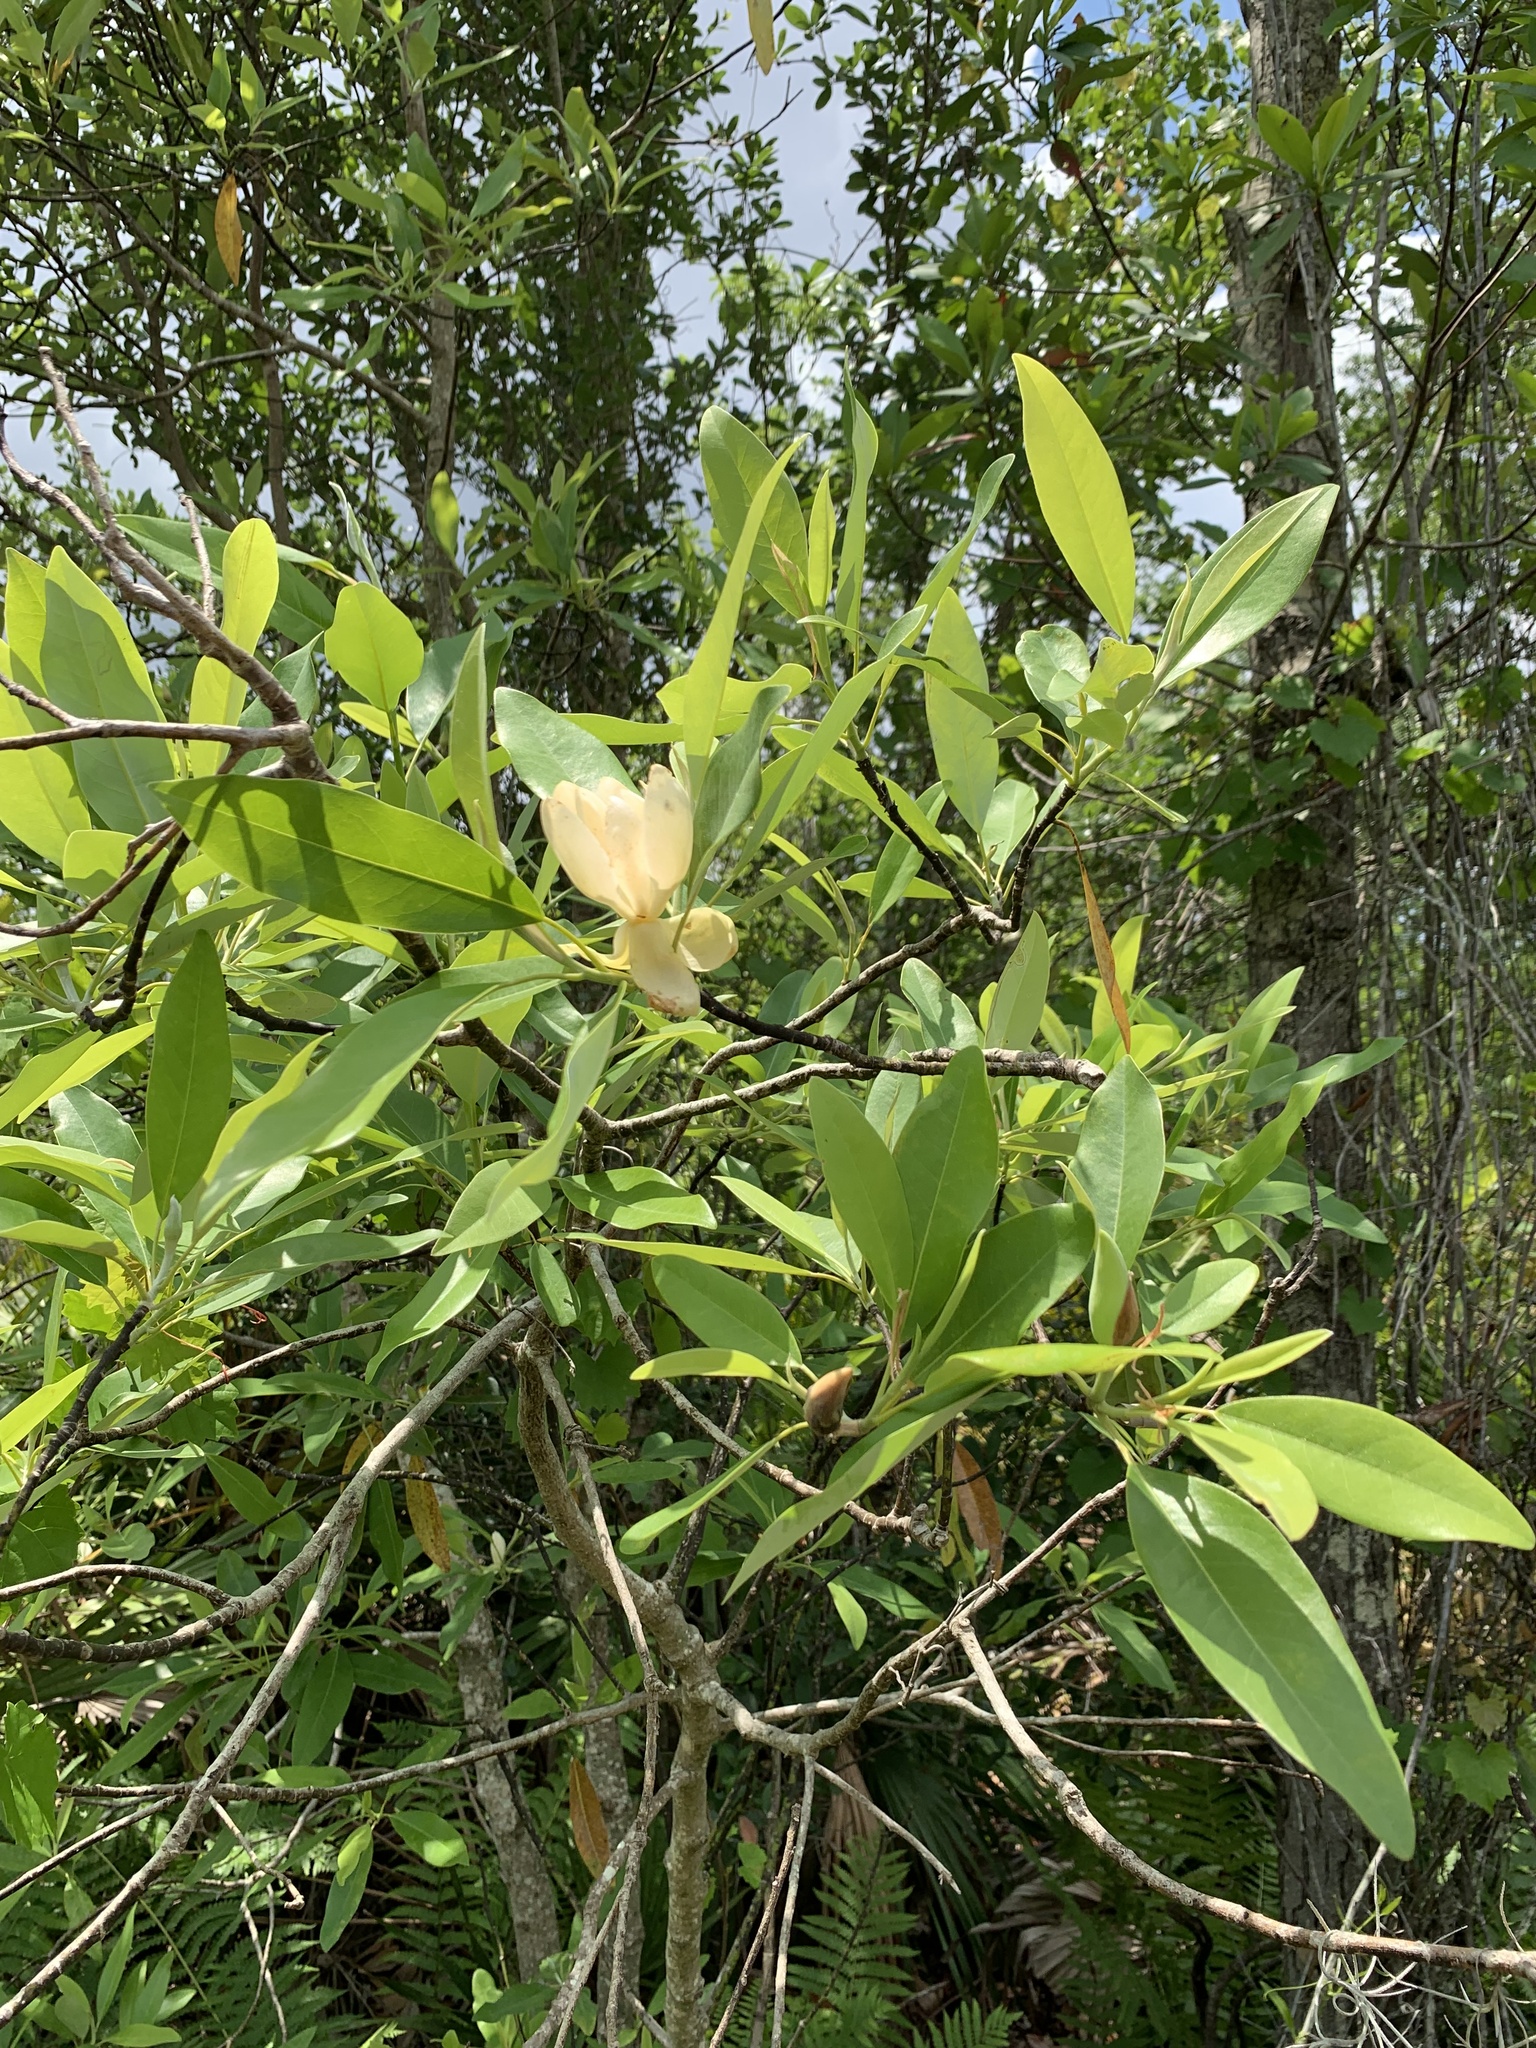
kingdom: Plantae
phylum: Tracheophyta
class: Magnoliopsida
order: Magnoliales
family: Magnoliaceae
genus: Magnolia
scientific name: Magnolia virginiana
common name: Swamp bay
